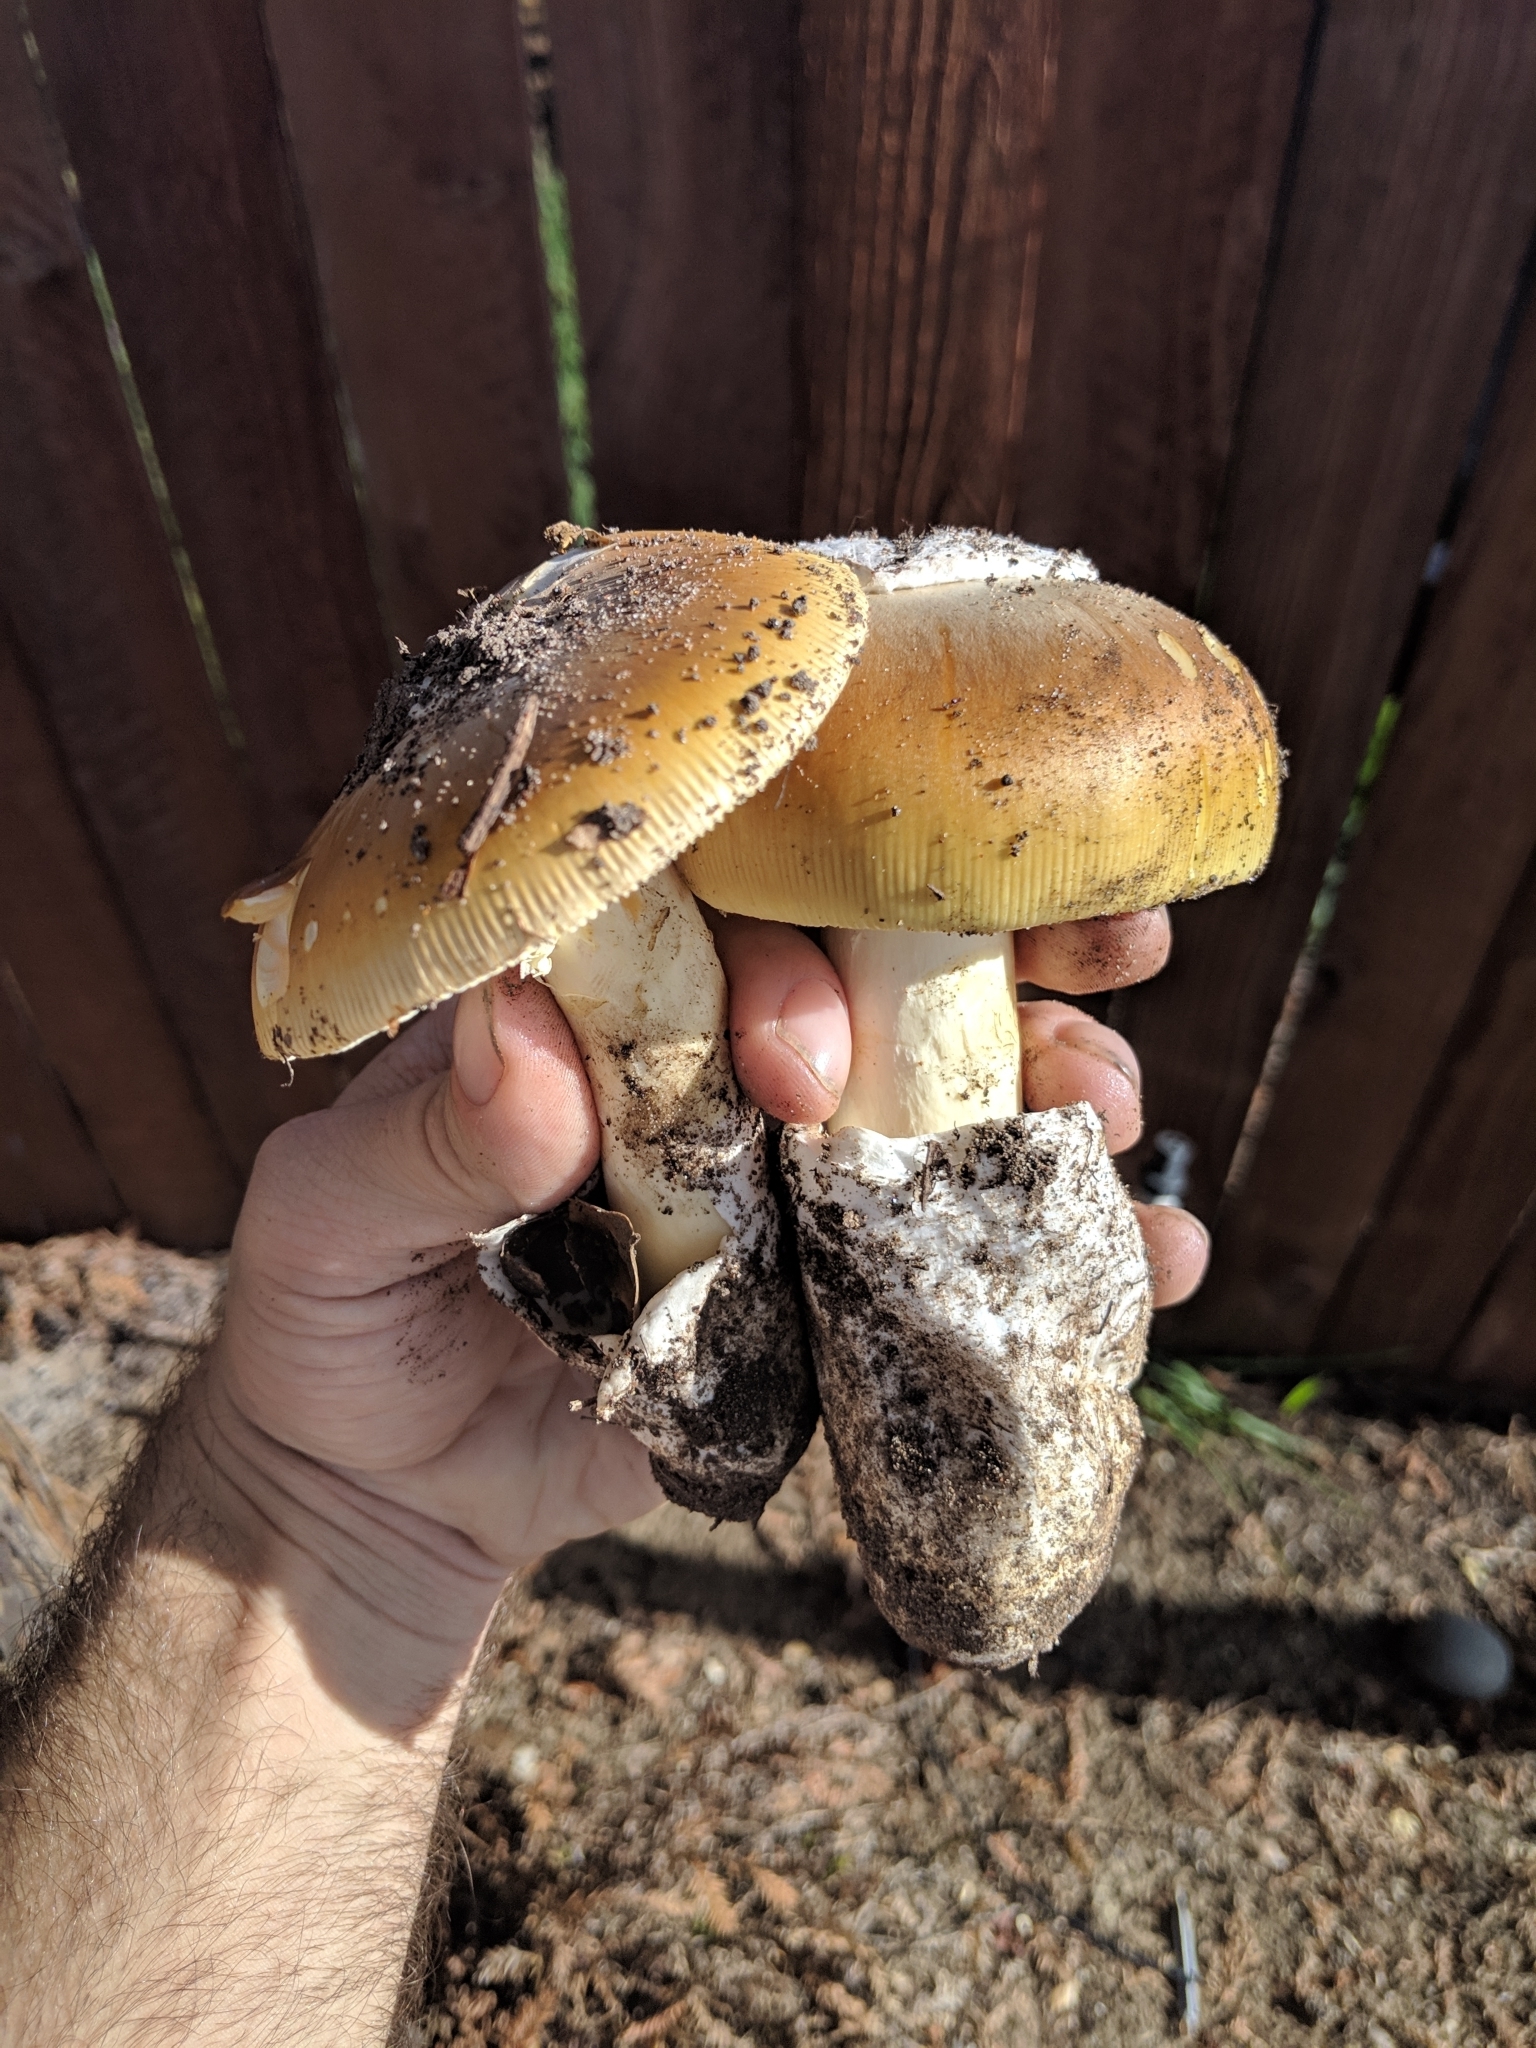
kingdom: Fungi
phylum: Basidiomycota
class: Agaricomycetes
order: Agaricales
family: Amanitaceae
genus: Amanita
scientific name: Amanita calyptroderma
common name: Coccora
